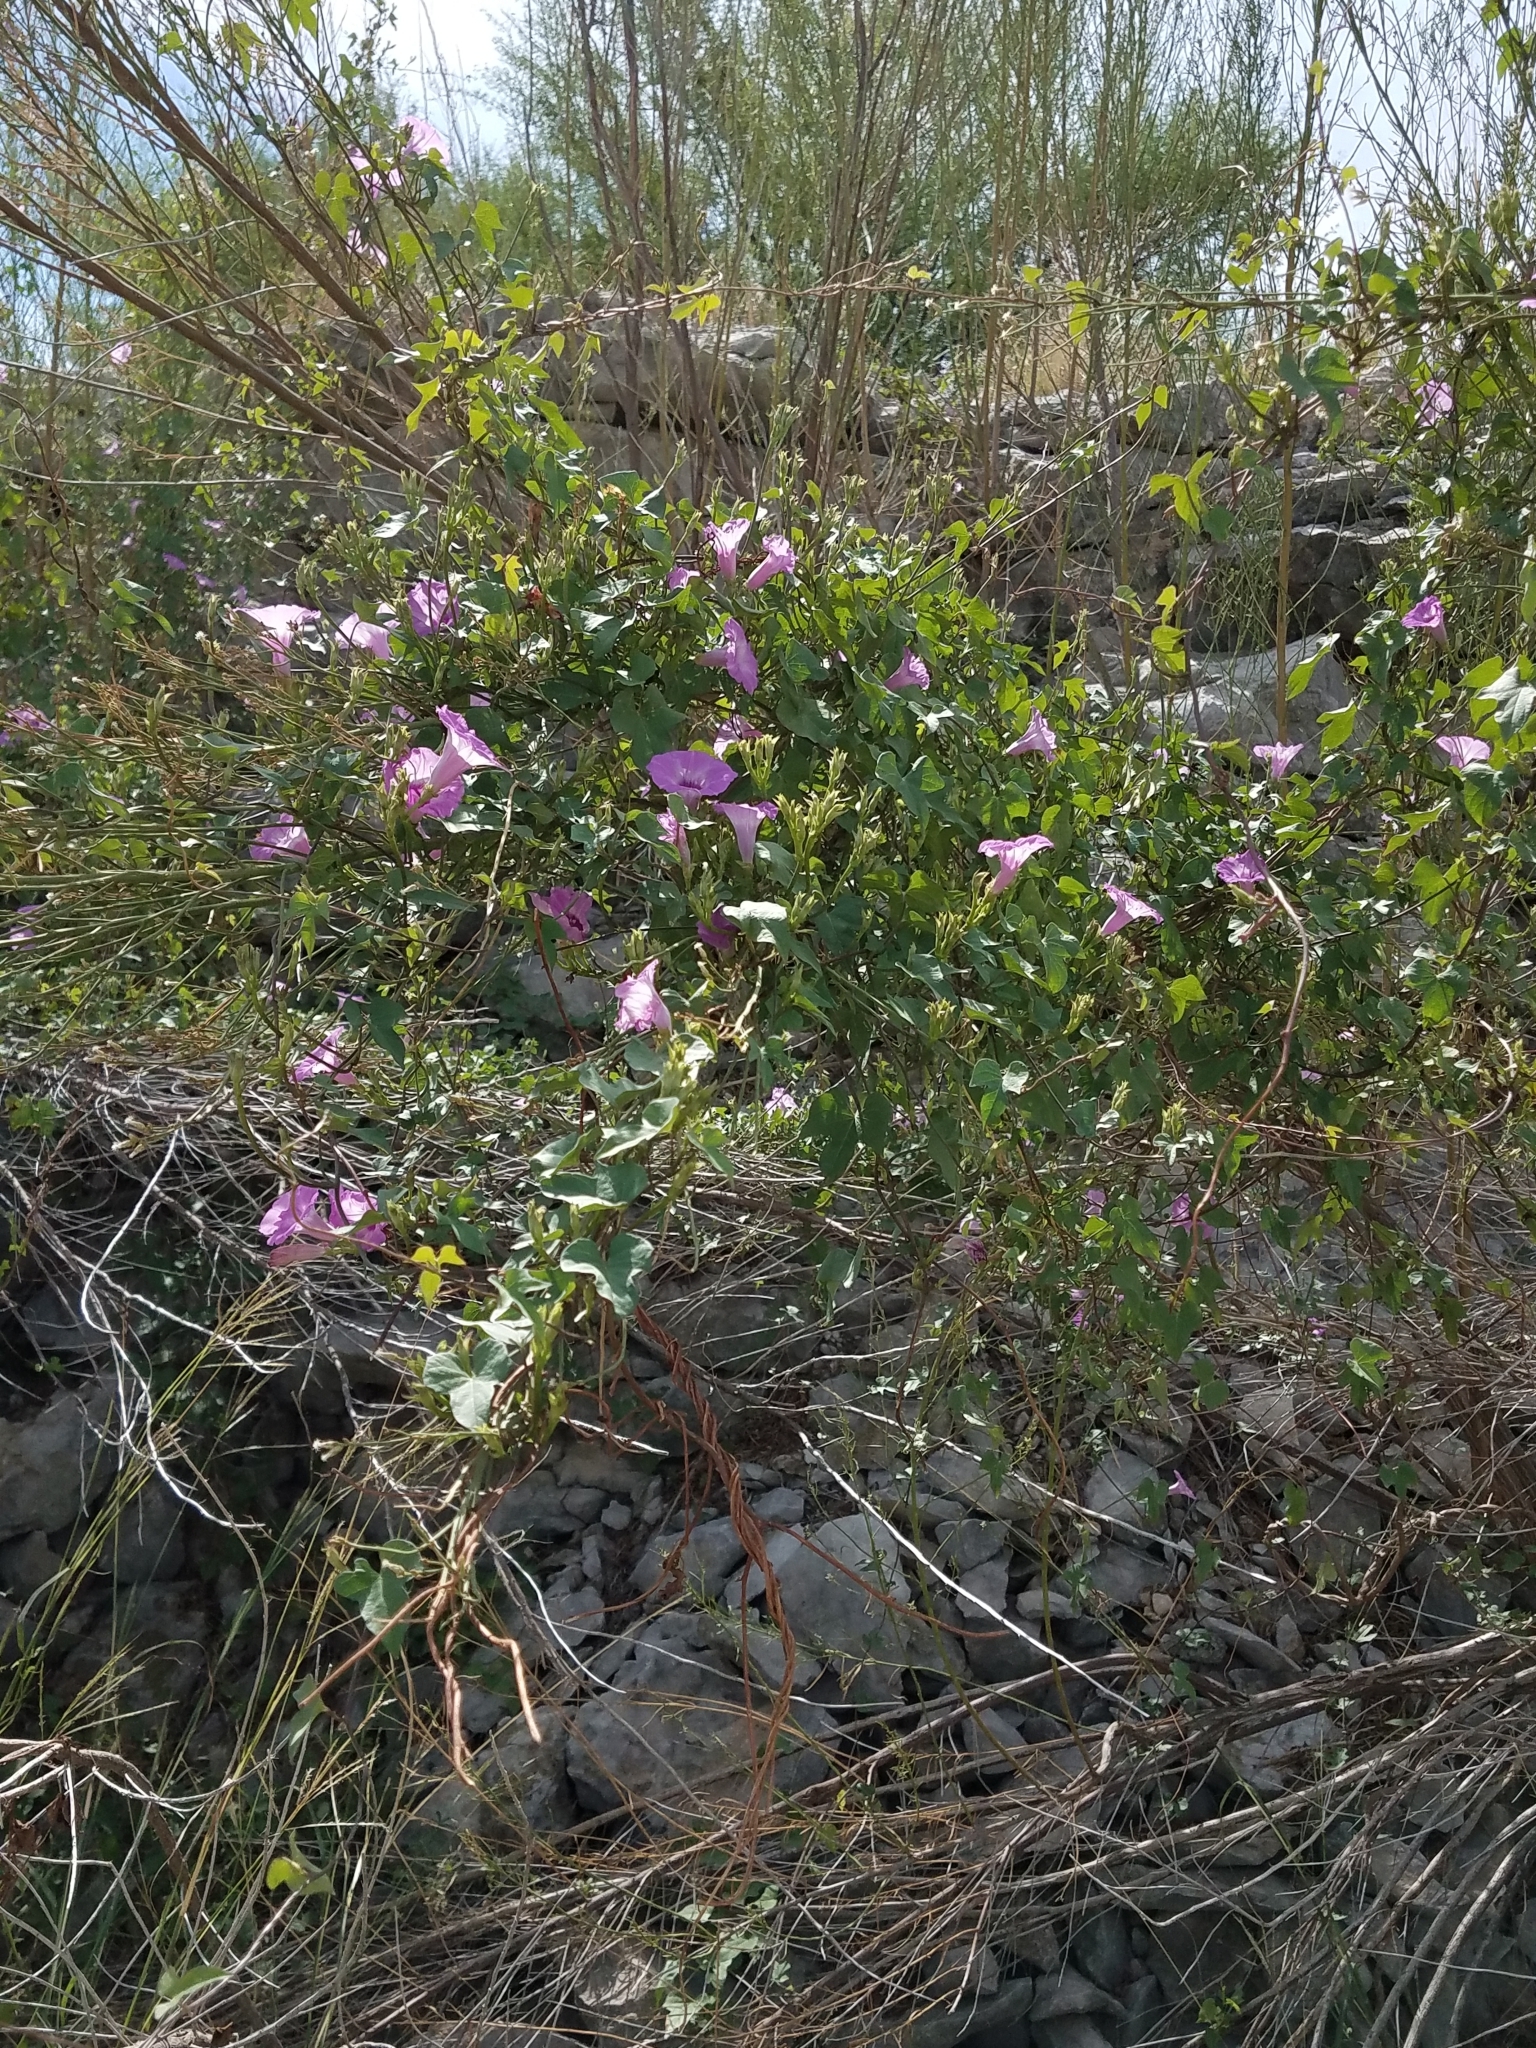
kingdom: Plantae
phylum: Tracheophyta
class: Magnoliopsida
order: Solanales
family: Convolvulaceae
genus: Ipomoea
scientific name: Ipomoea cordatotriloba
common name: Cotton morning glory
